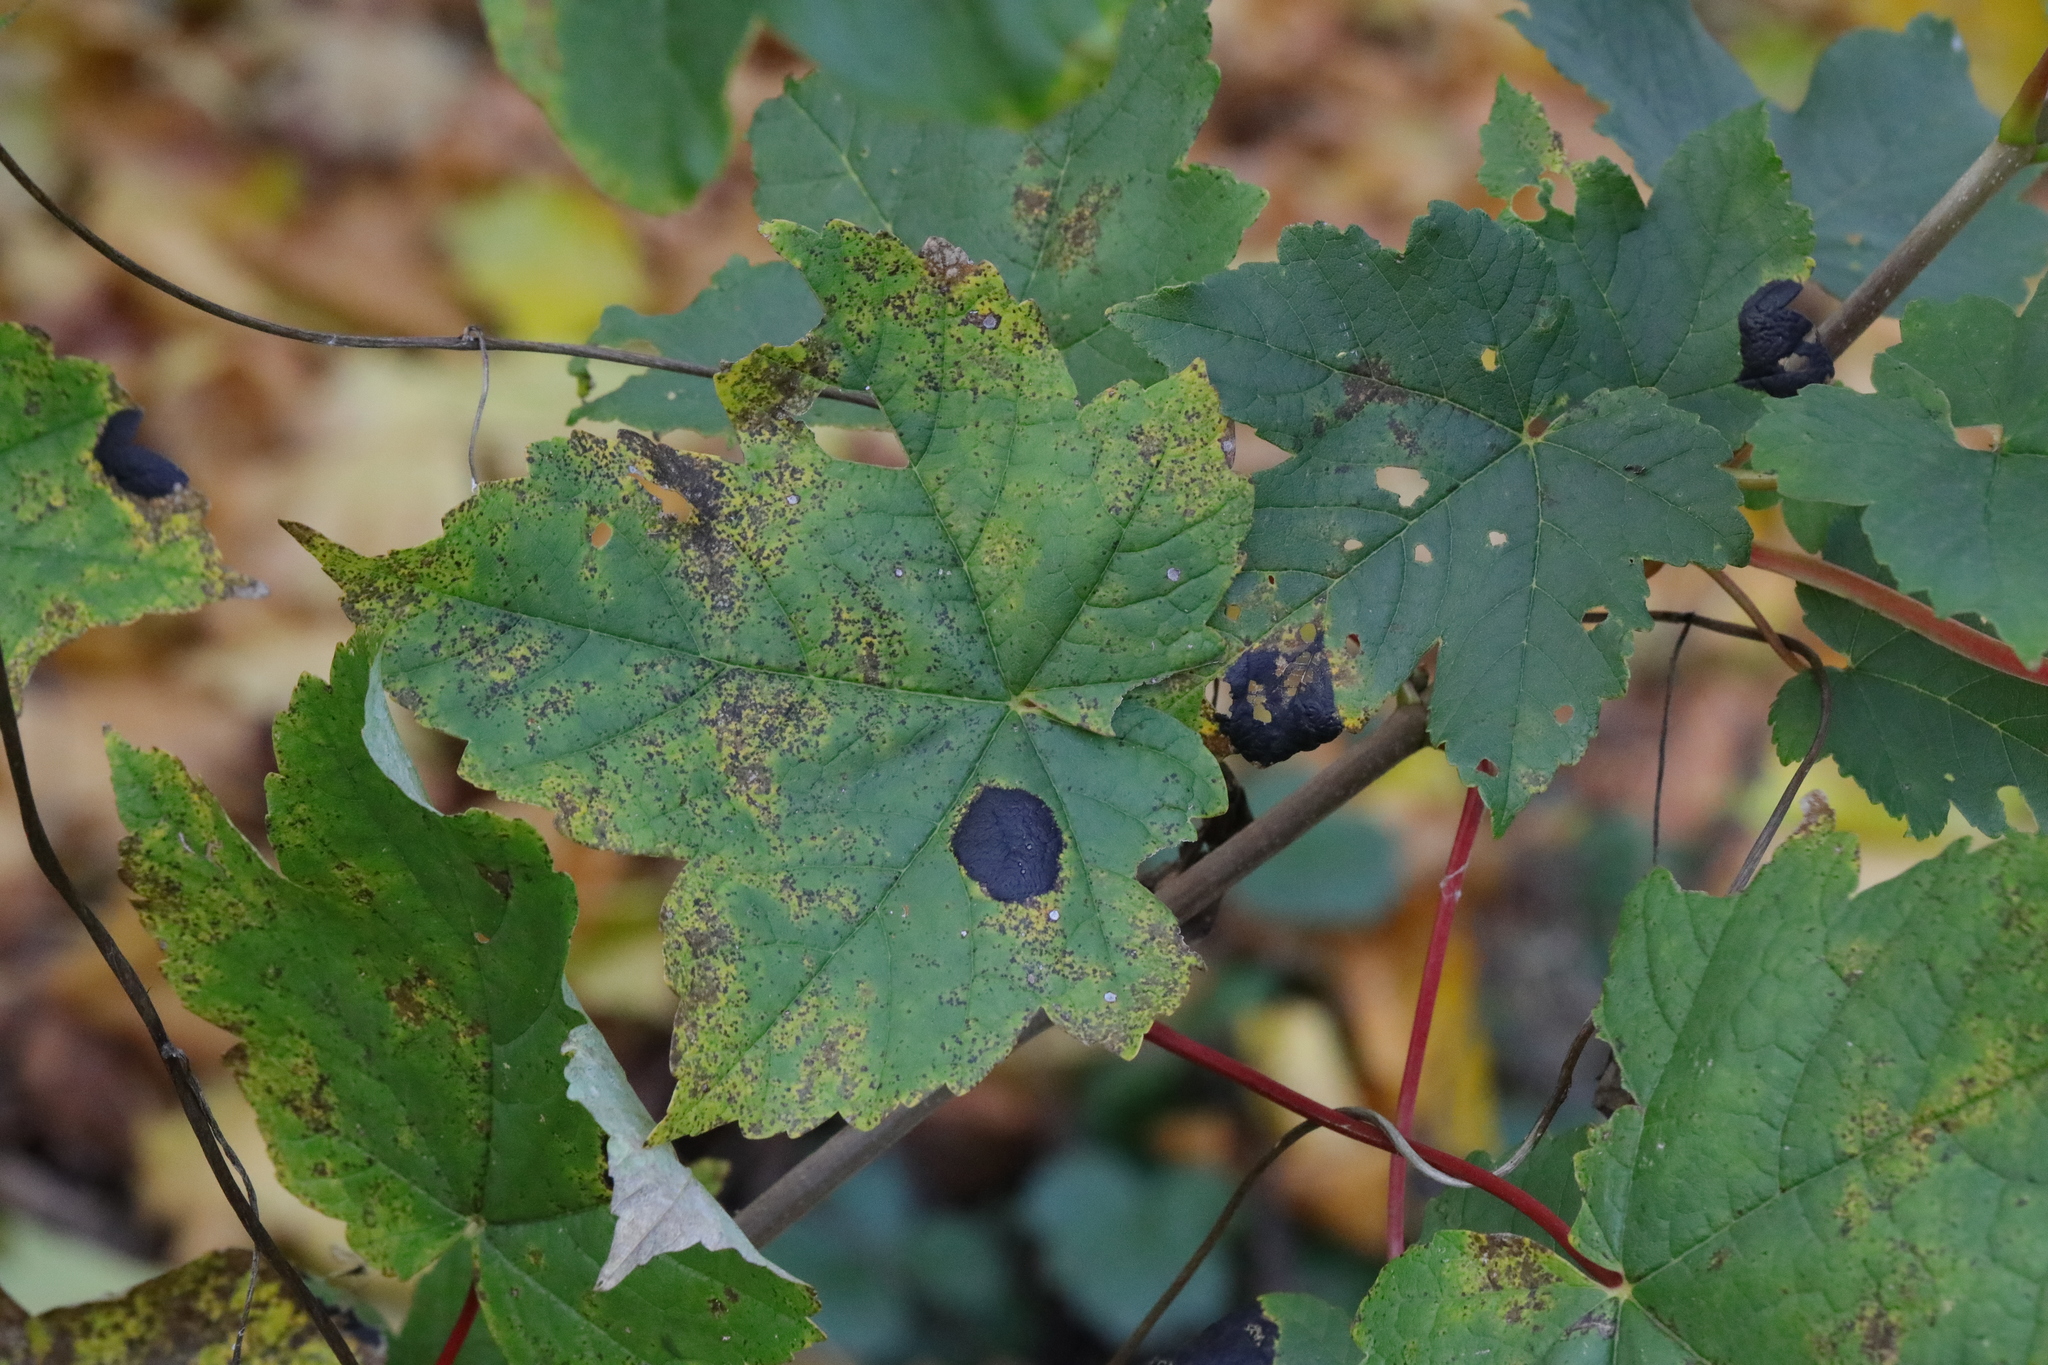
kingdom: Fungi
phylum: Ascomycota
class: Leotiomycetes
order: Rhytismatales
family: Rhytismataceae
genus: Rhytisma
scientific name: Rhytisma acerinum
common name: European tar spot
